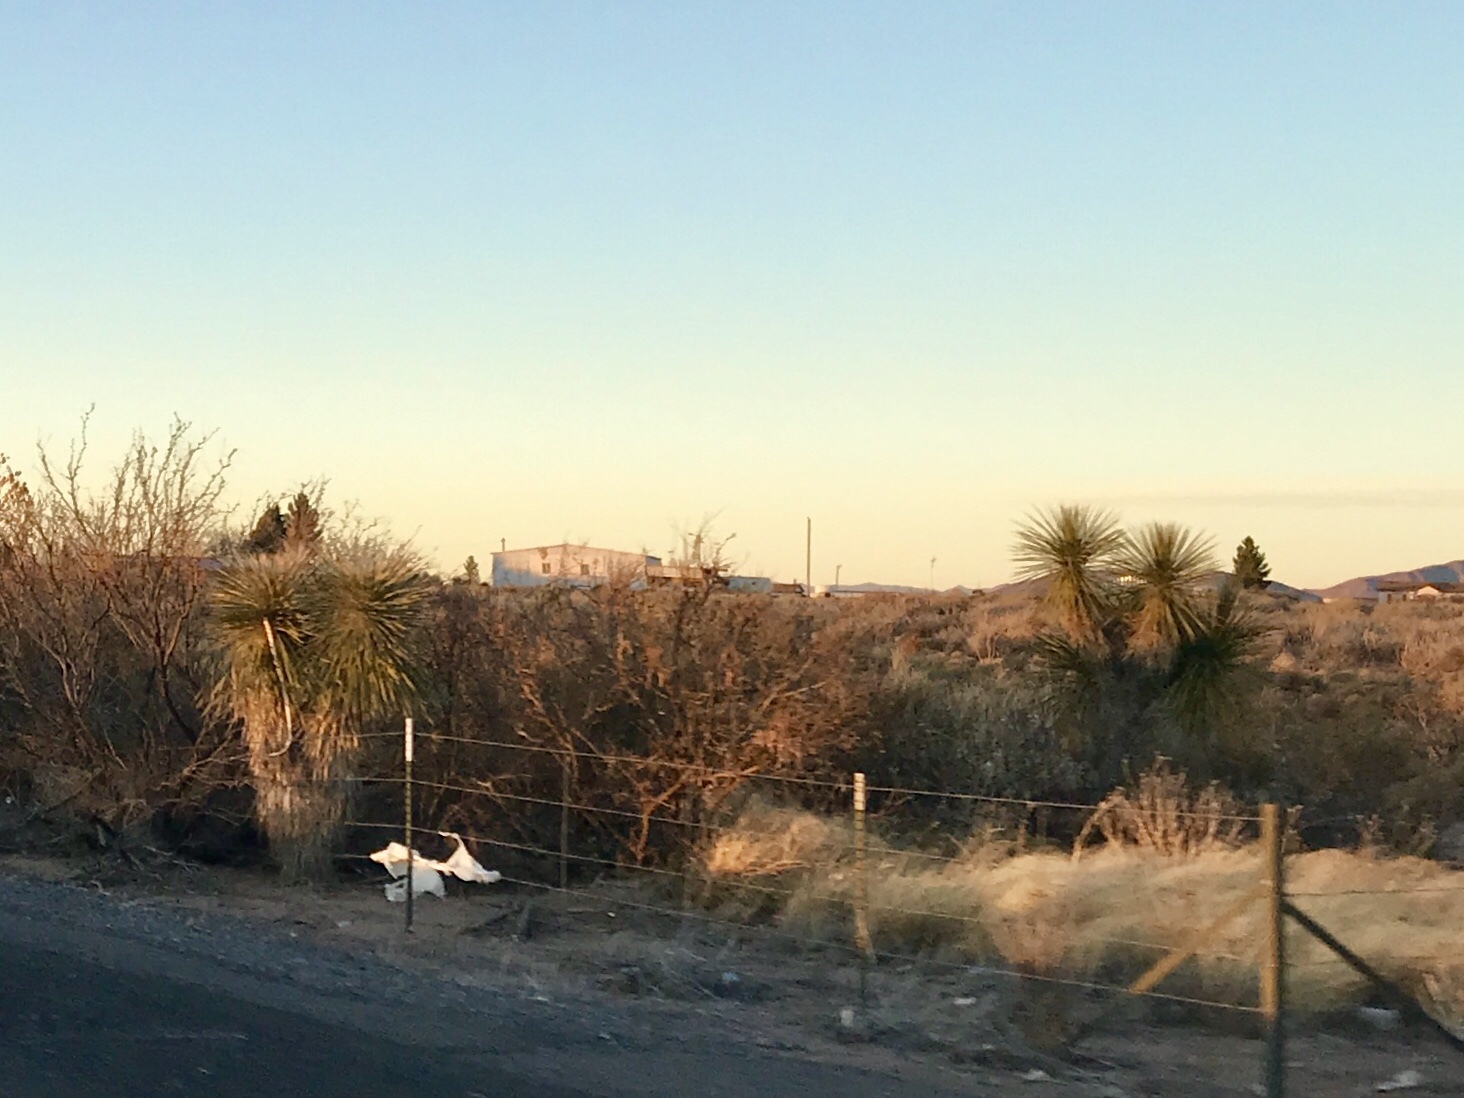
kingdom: Plantae
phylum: Tracheophyta
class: Liliopsida
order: Asparagales
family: Asparagaceae
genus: Yucca
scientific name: Yucca elata
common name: Palmella
